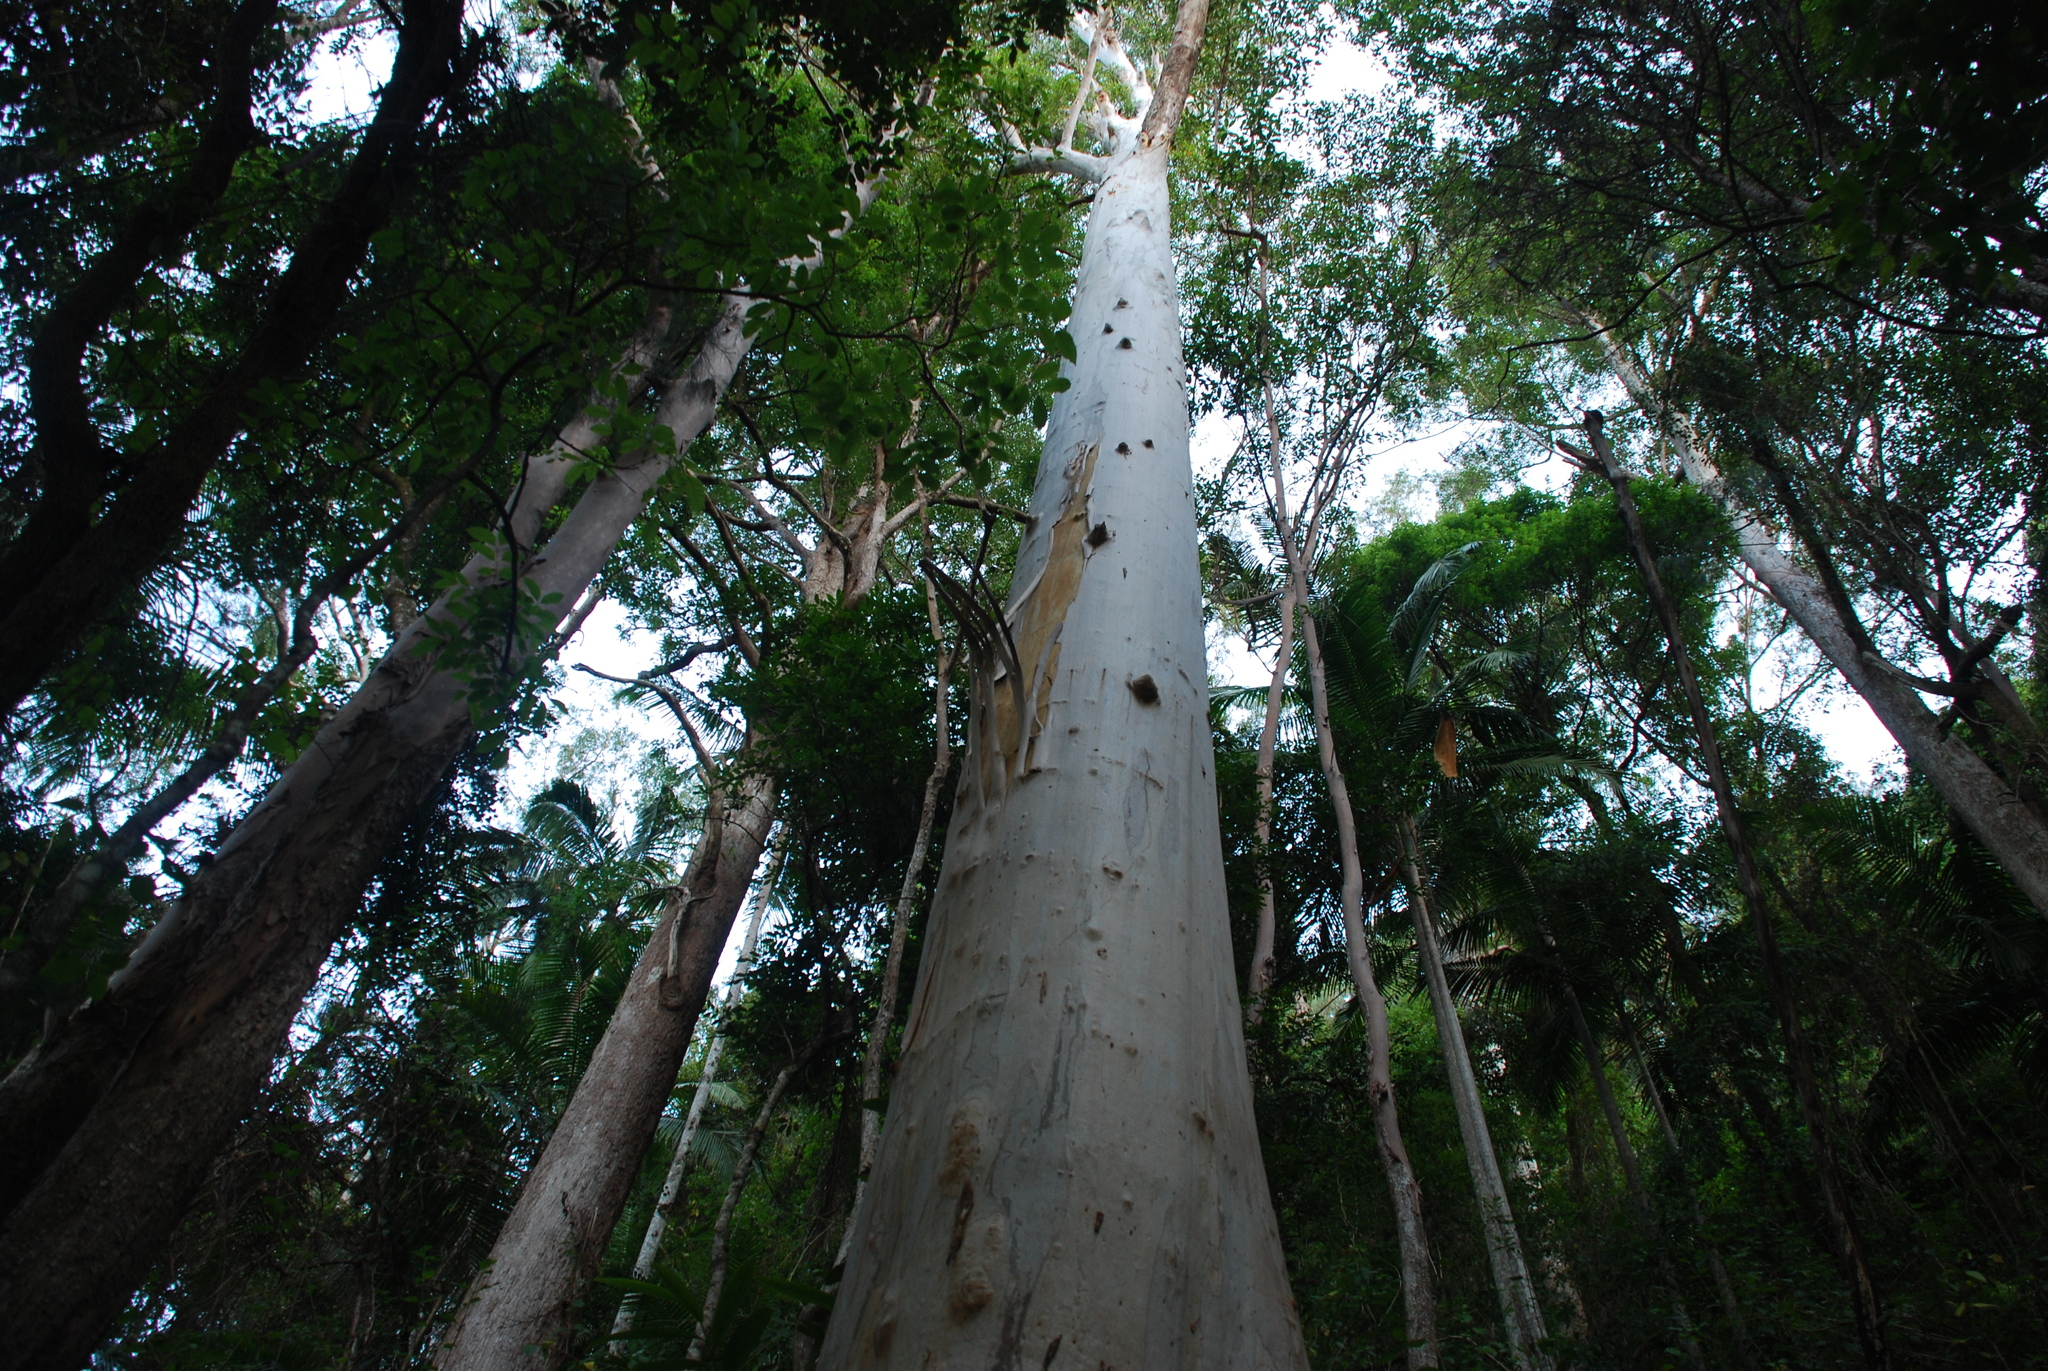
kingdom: Plantae
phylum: Tracheophyta
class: Magnoliopsida
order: Myrtales
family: Myrtaceae
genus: Eucalyptus
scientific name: Eucalyptus grandis
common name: Grand eucalyptus
